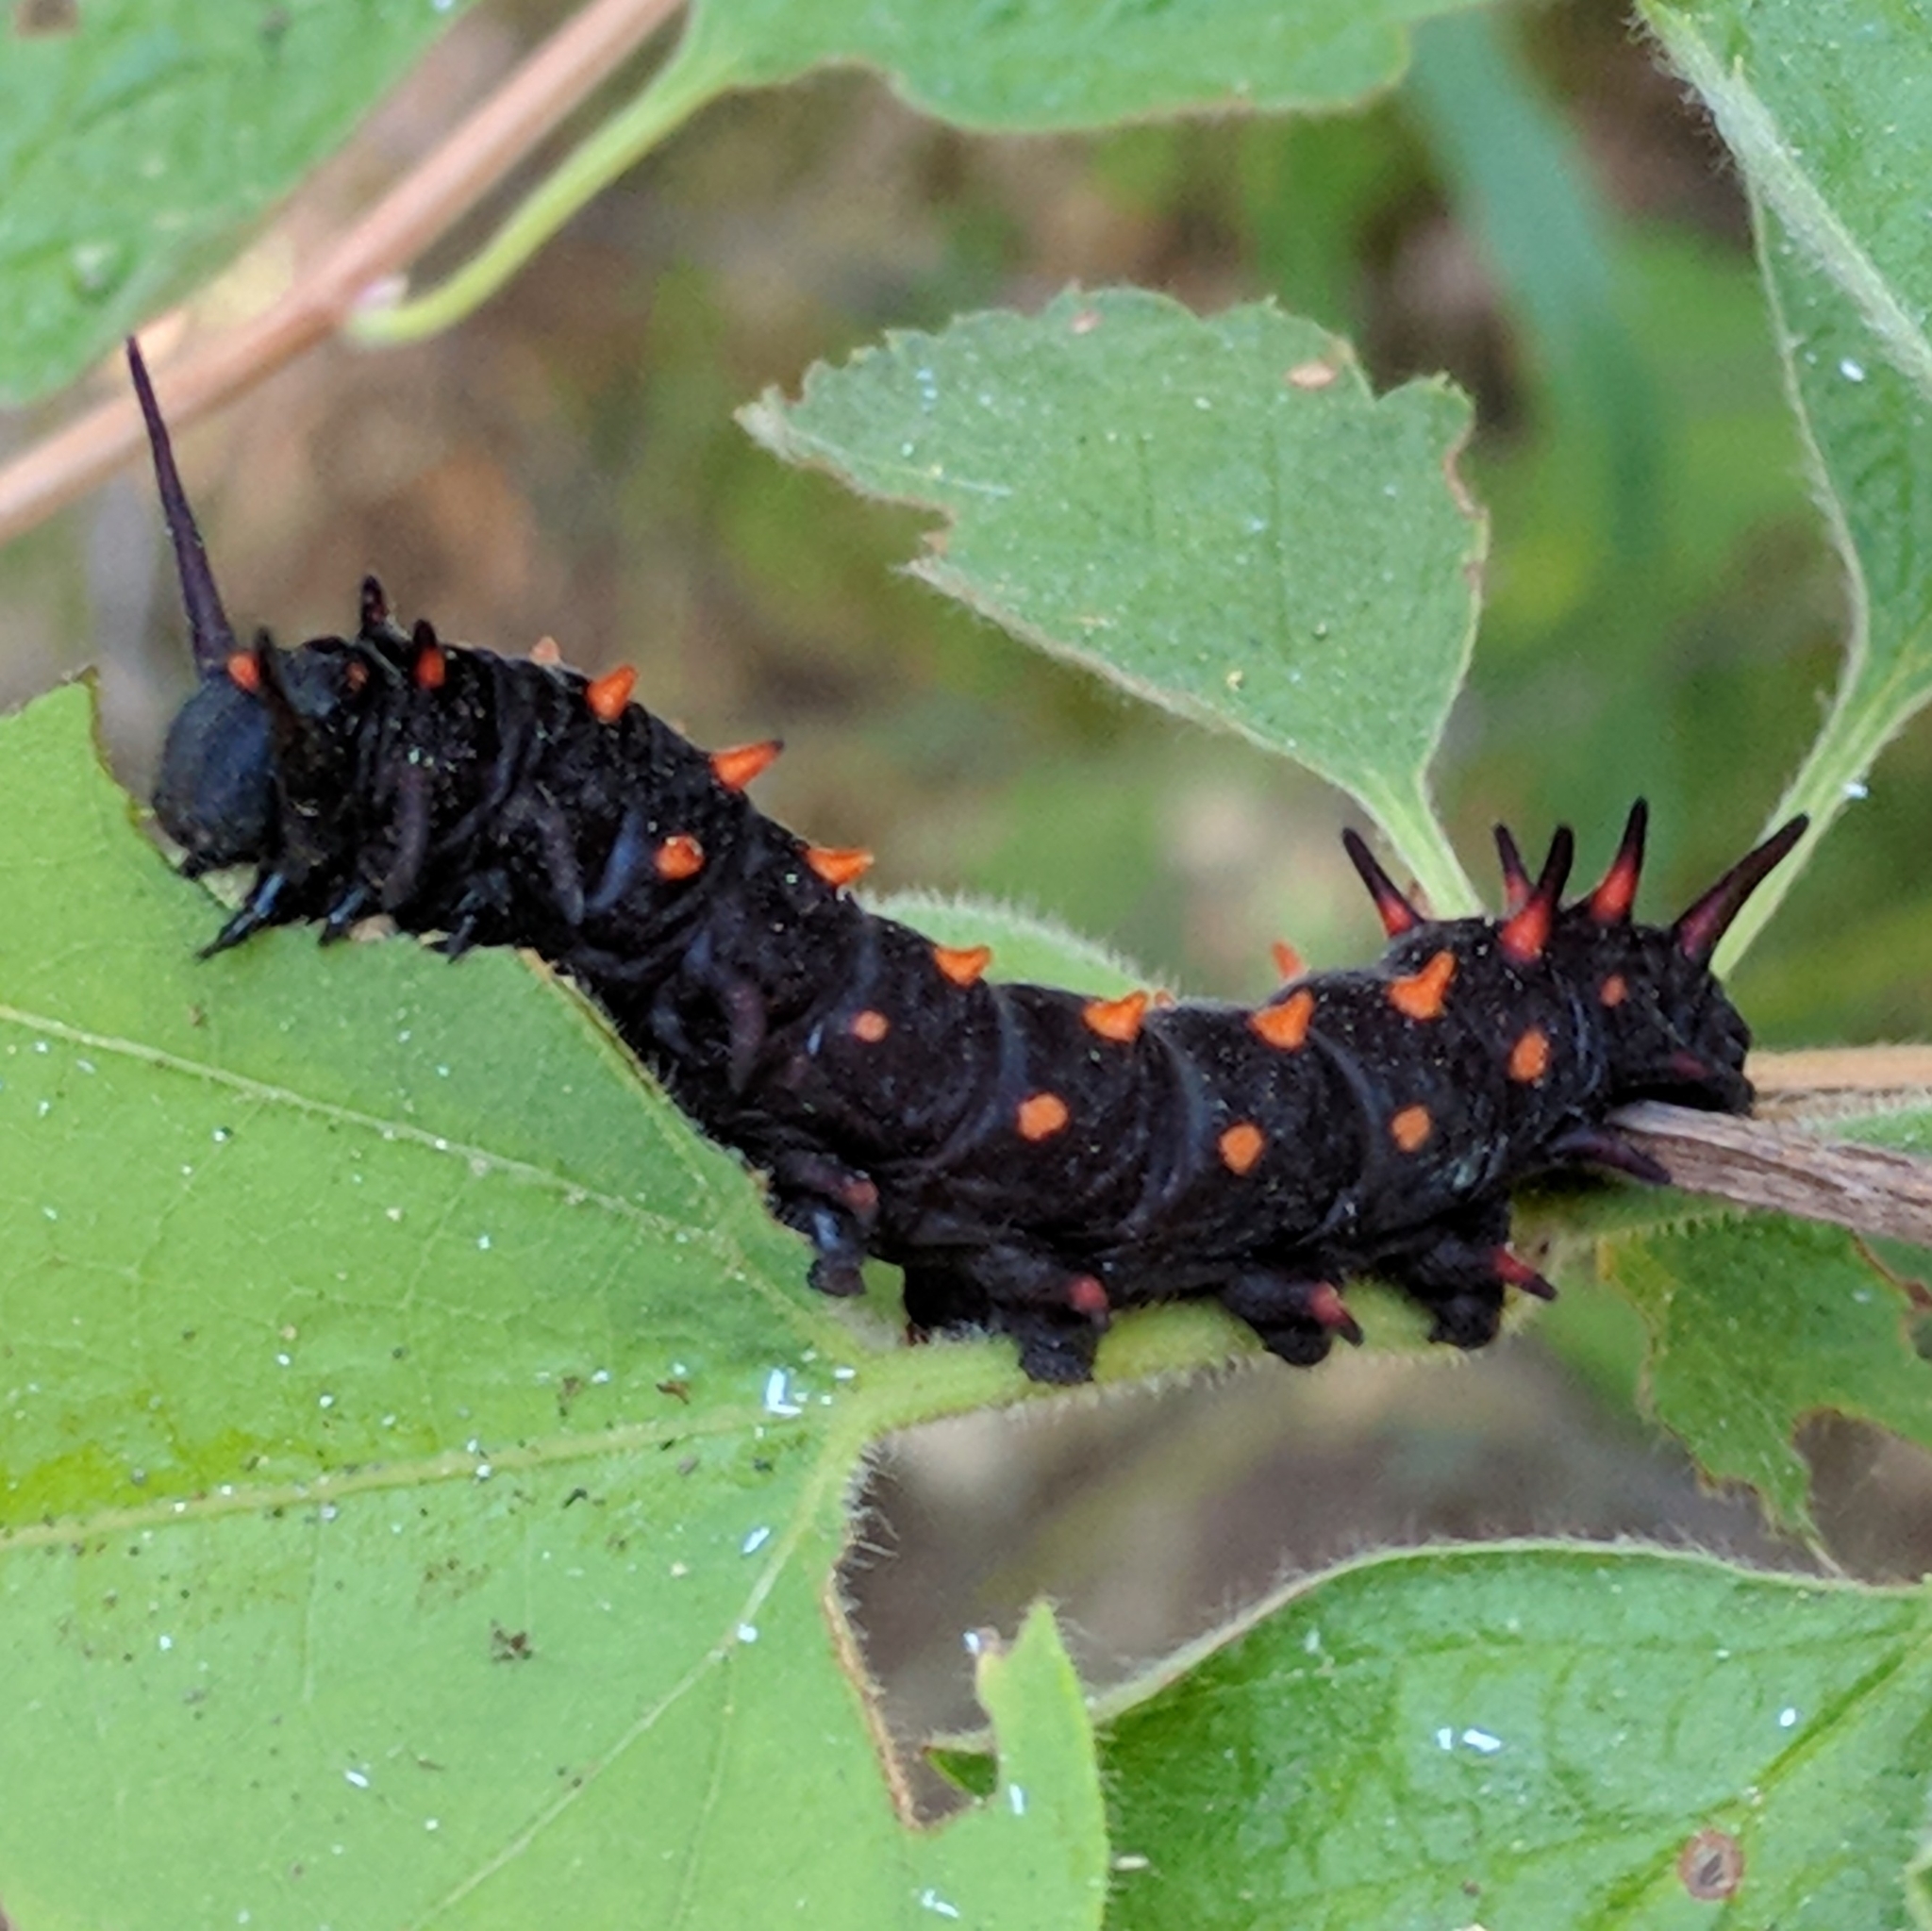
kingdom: Animalia
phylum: Arthropoda
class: Insecta
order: Lepidoptera
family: Papilionidae
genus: Battus
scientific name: Battus philenor
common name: Pipevine swallowtail
